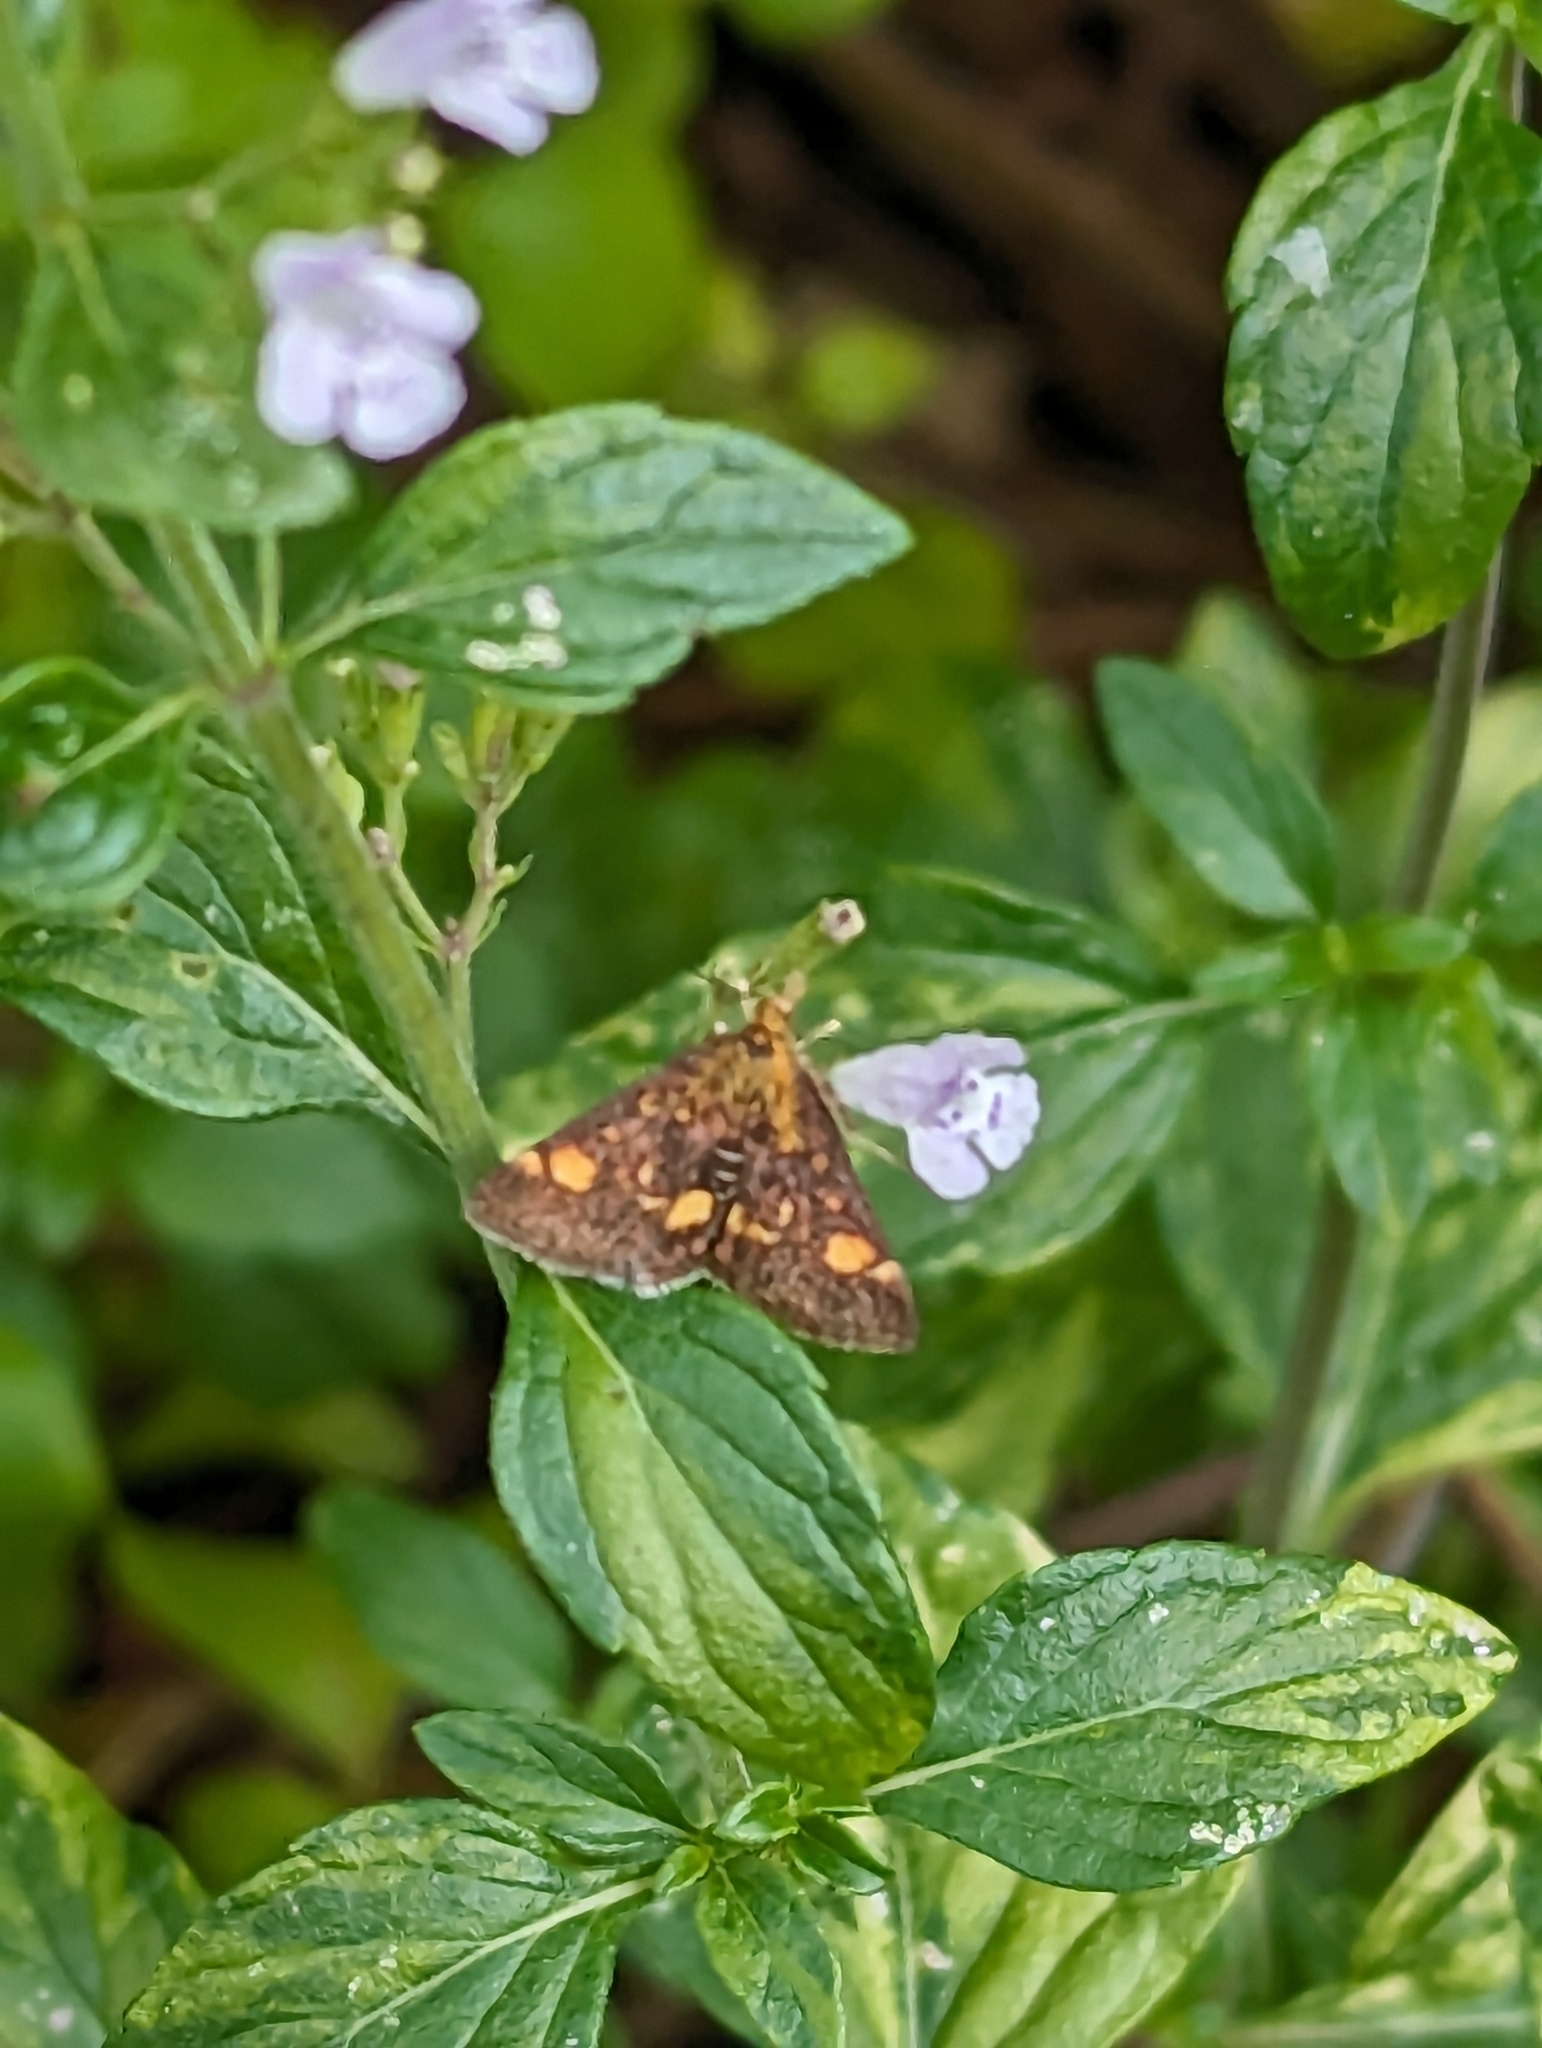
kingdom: Animalia
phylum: Arthropoda
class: Insecta
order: Lepidoptera
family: Crambidae
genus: Pyrausta
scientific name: Pyrausta aurata
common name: Small purple & gold
